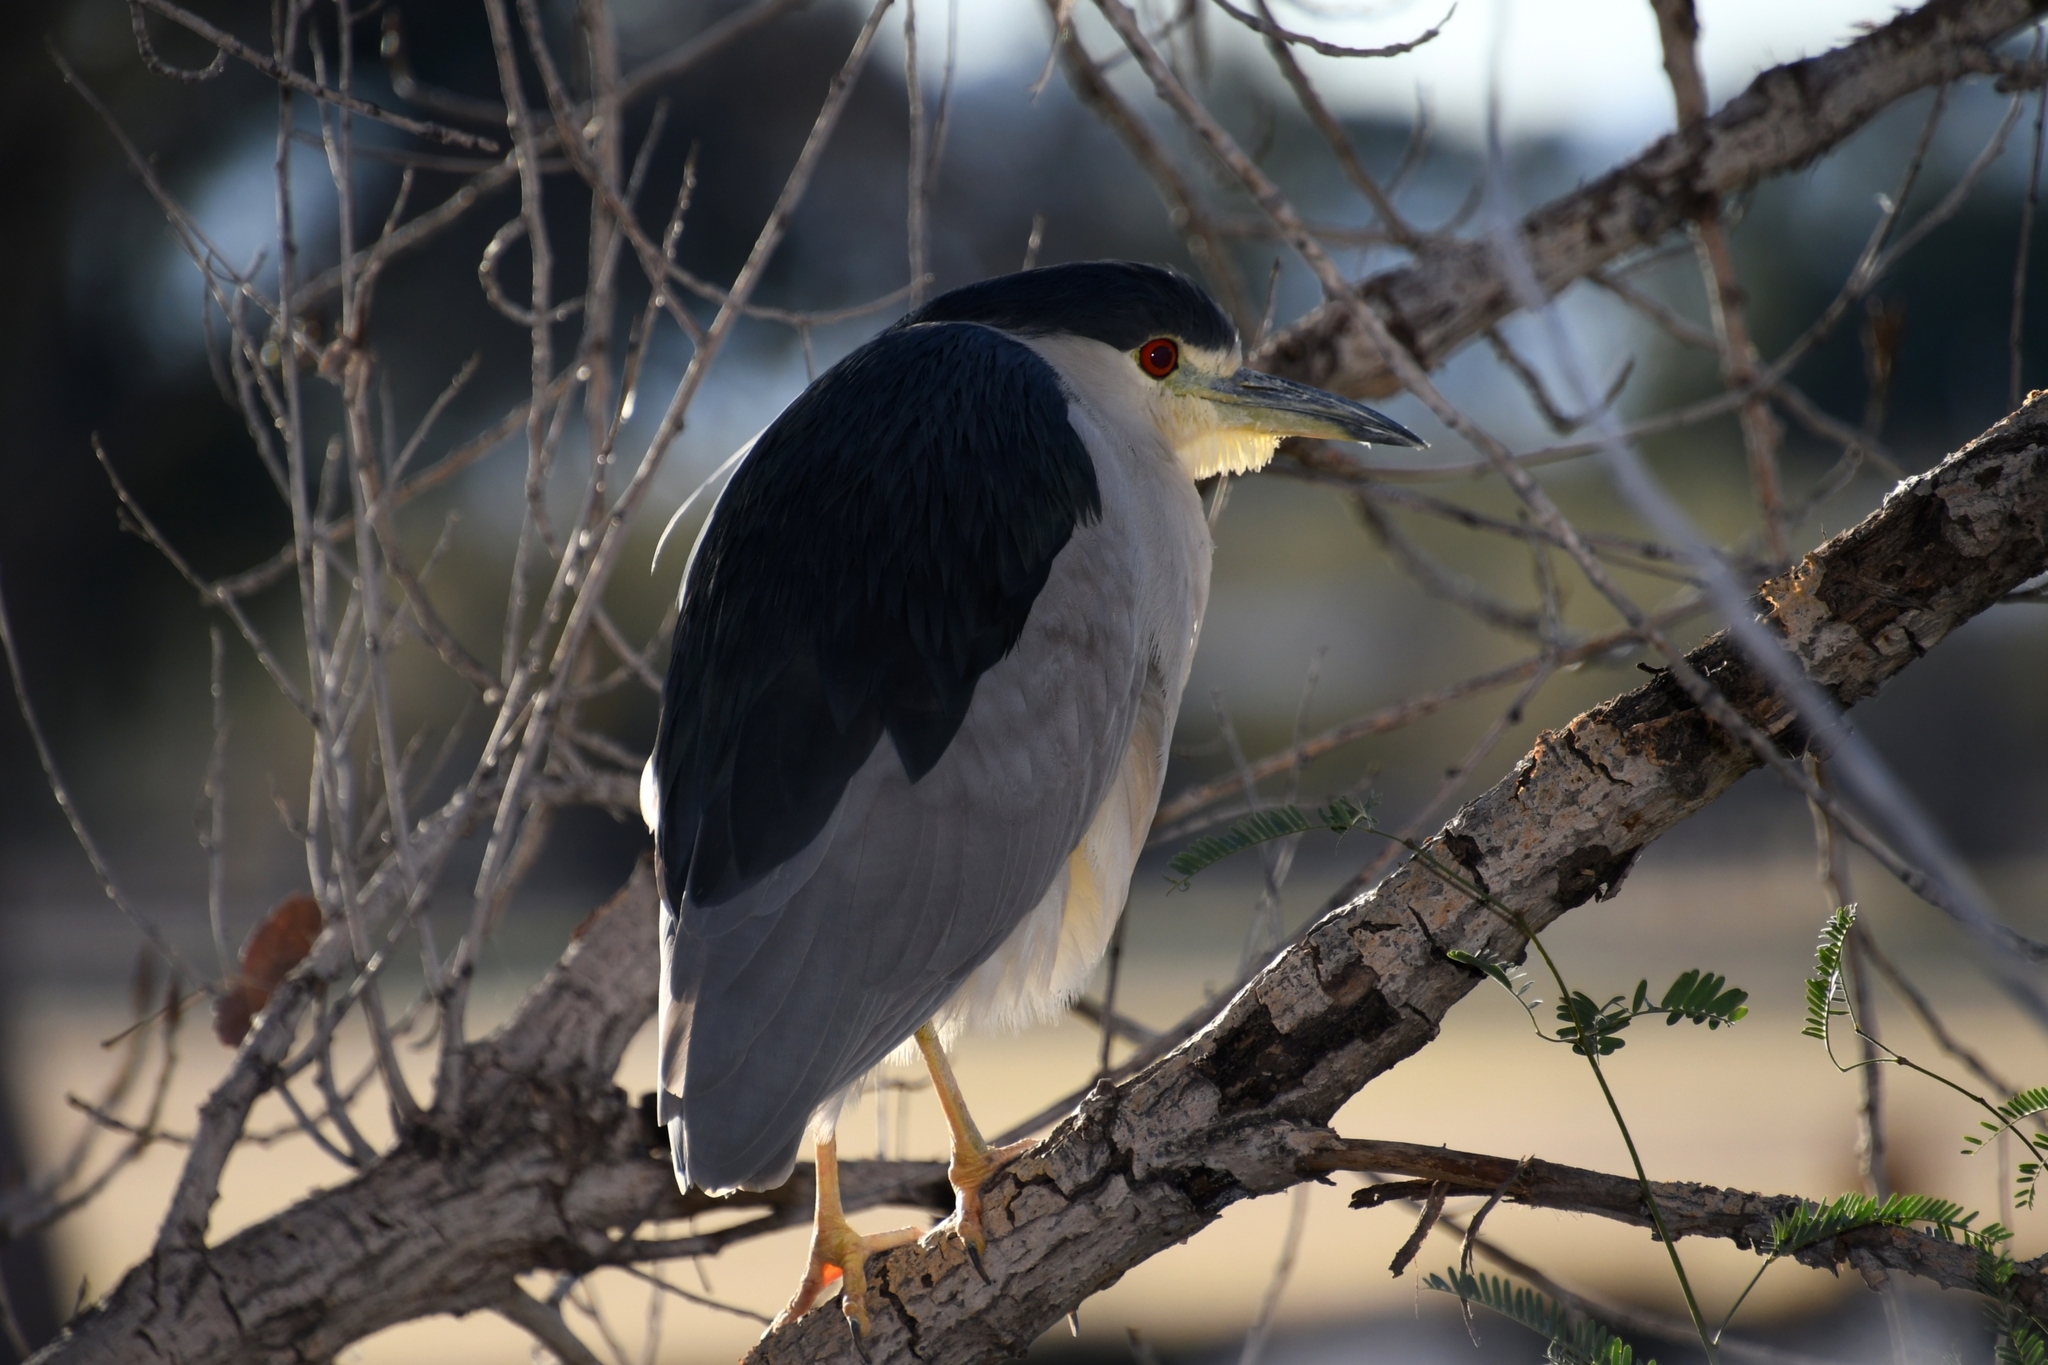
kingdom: Animalia
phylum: Chordata
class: Aves
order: Pelecaniformes
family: Ardeidae
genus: Nycticorax
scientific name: Nycticorax nycticorax
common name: Black-crowned night heron
